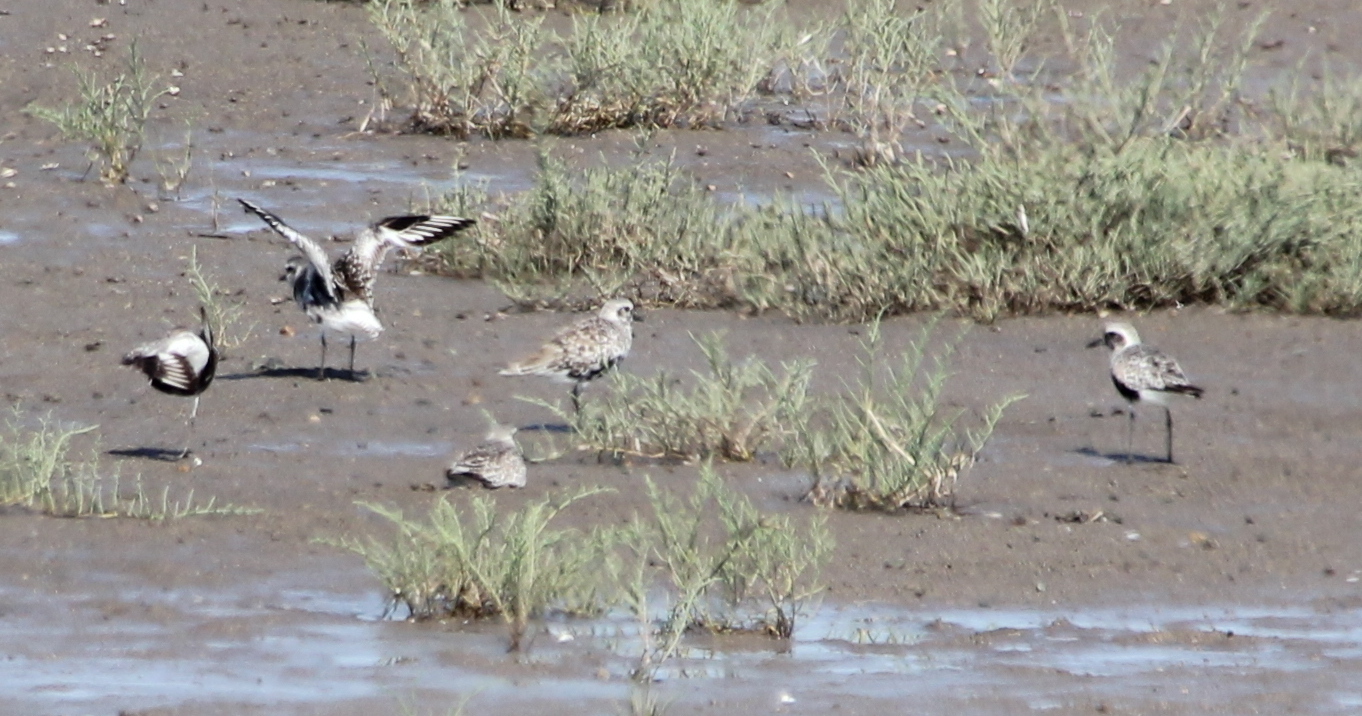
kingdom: Animalia
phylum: Chordata
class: Aves
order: Charadriiformes
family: Charadriidae
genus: Pluvialis
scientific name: Pluvialis squatarola
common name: Grey plover
